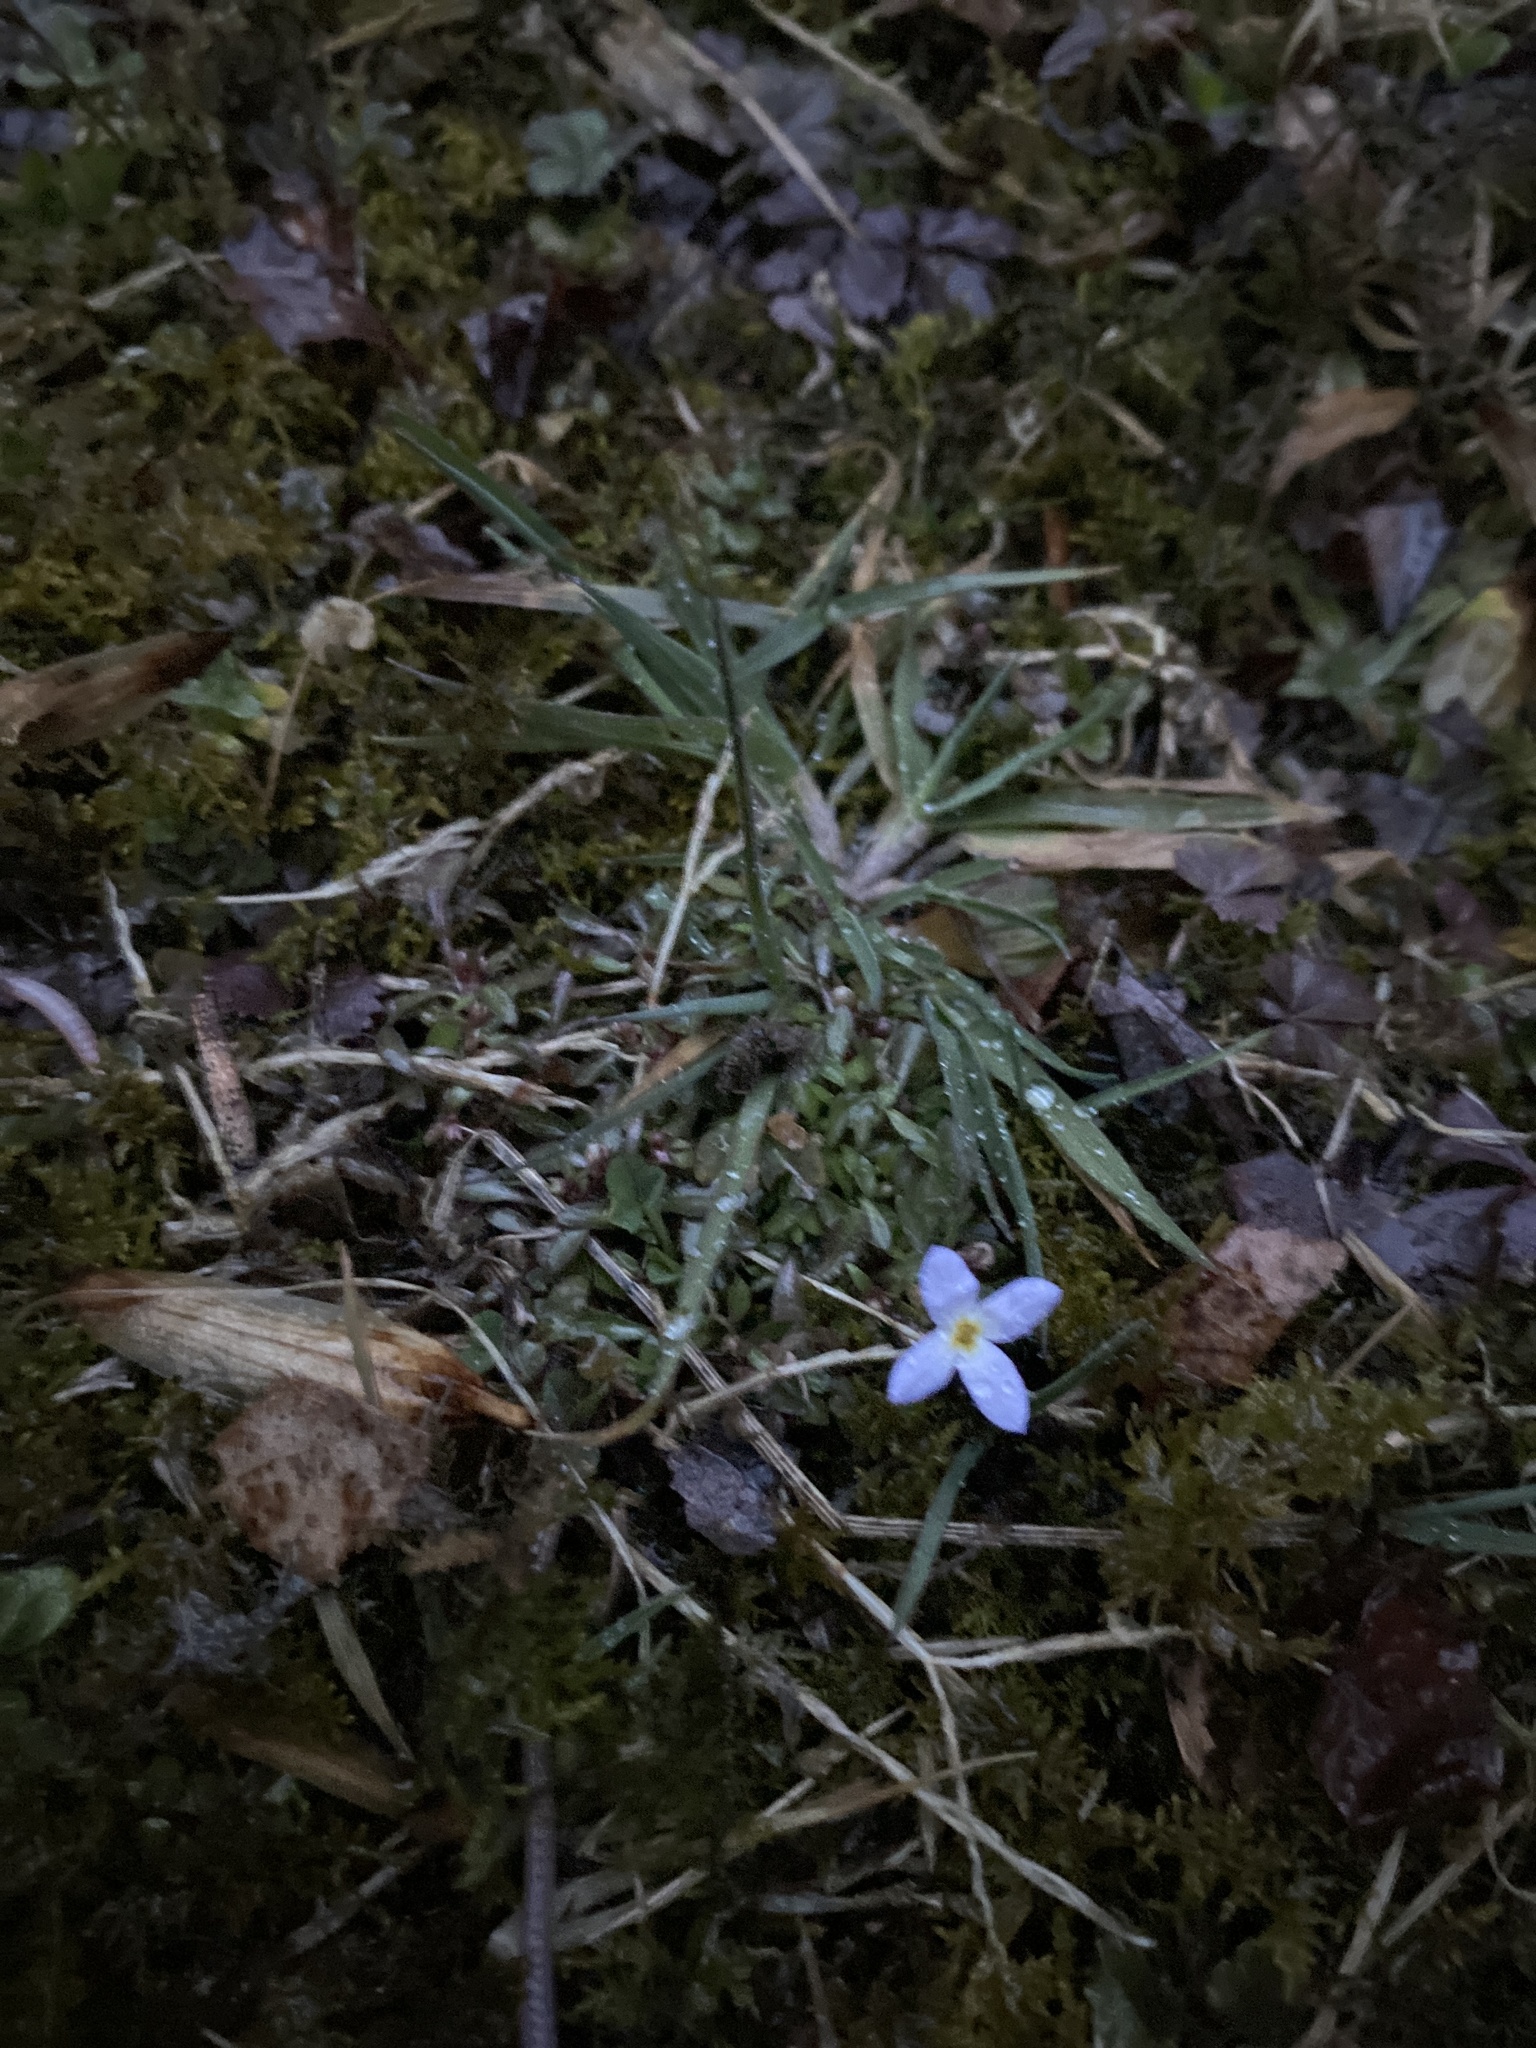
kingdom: Plantae
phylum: Tracheophyta
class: Magnoliopsida
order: Gentianales
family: Rubiaceae
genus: Houstonia
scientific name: Houstonia caerulea
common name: Bluets
